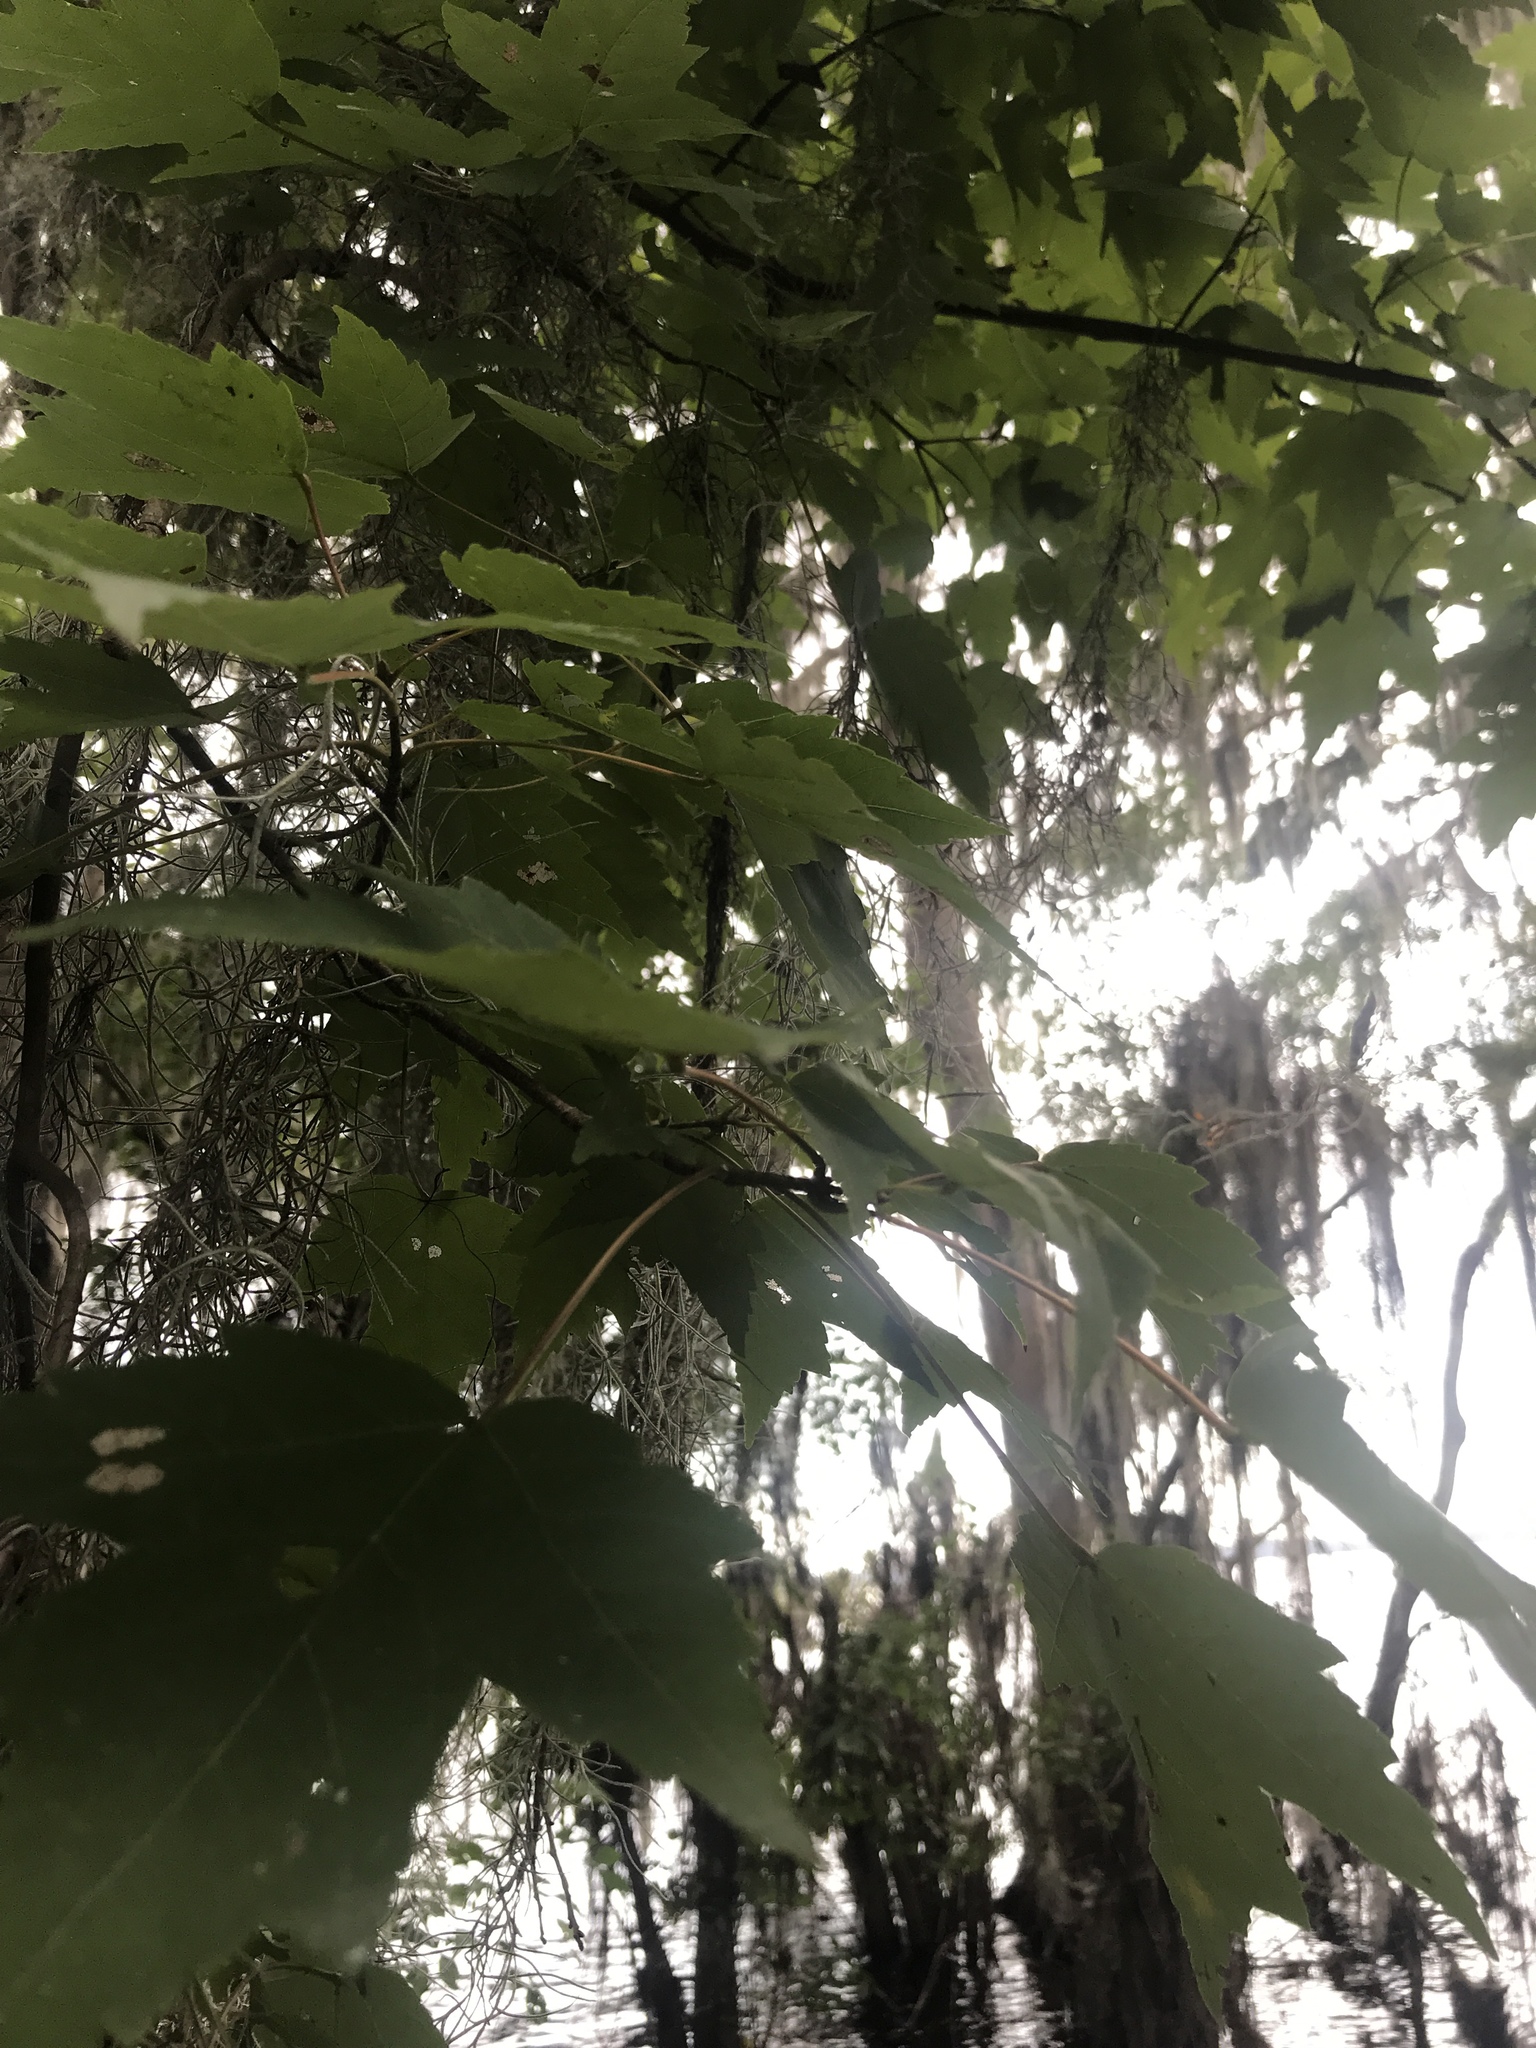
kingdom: Plantae
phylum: Tracheophyta
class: Magnoliopsida
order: Sapindales
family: Sapindaceae
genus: Acer
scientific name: Acer rubrum
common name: Red maple
